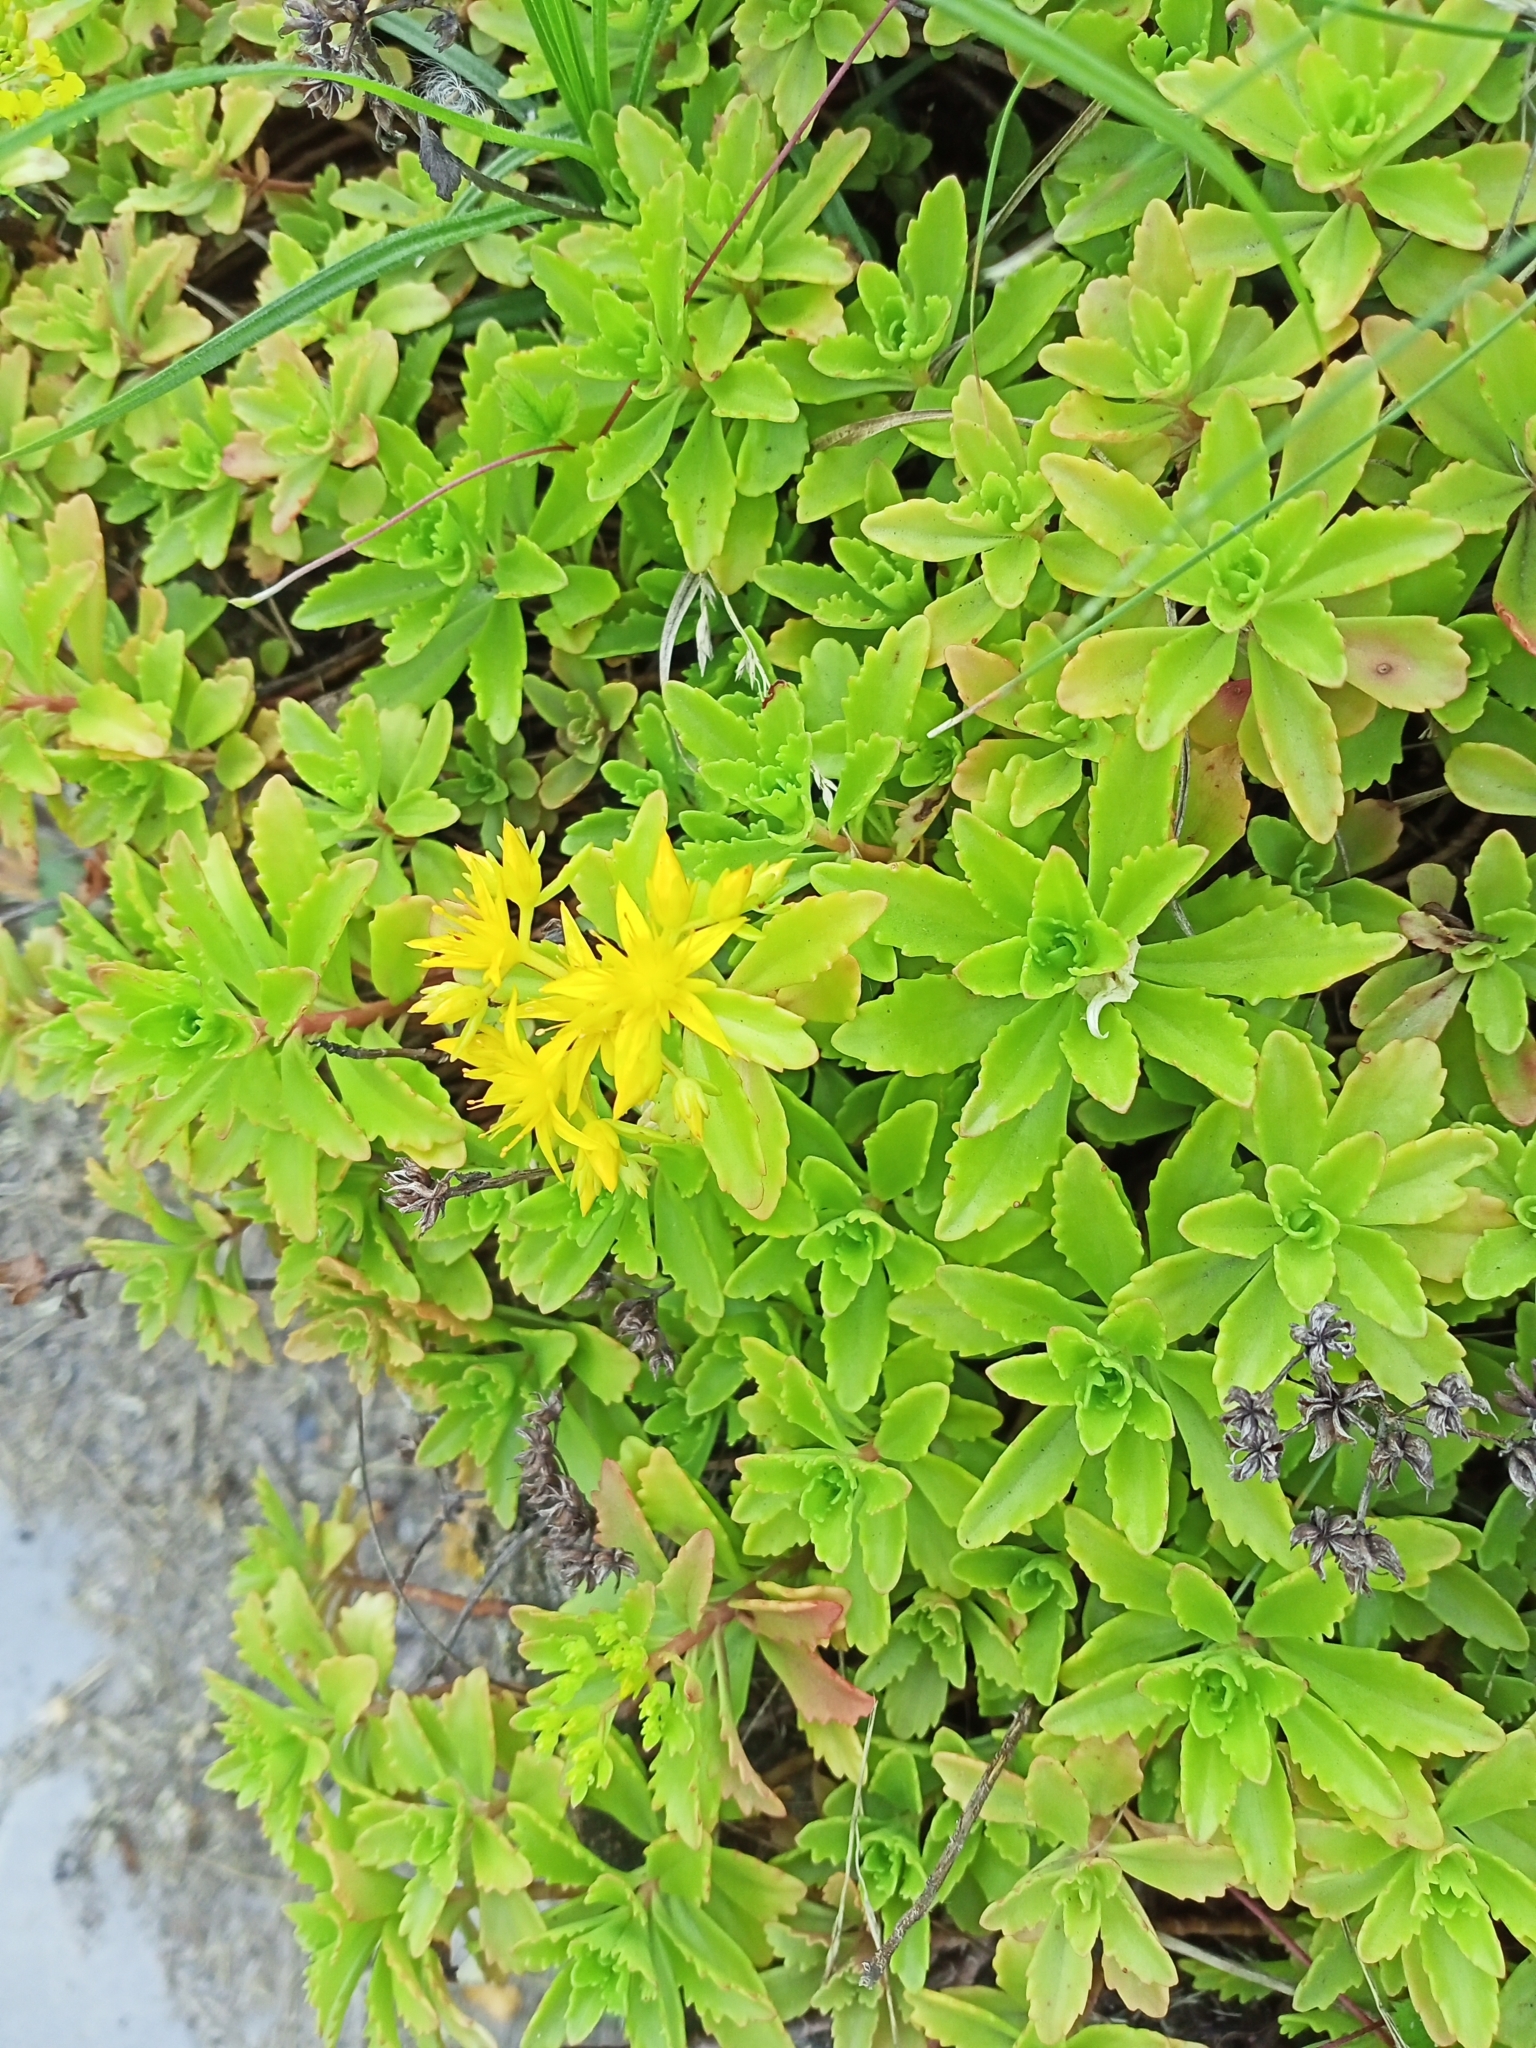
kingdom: Plantae
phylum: Tracheophyta
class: Magnoliopsida
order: Saxifragales
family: Crassulaceae
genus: Phedimus
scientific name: Phedimus hybridus
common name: Hybrid stonecrop
